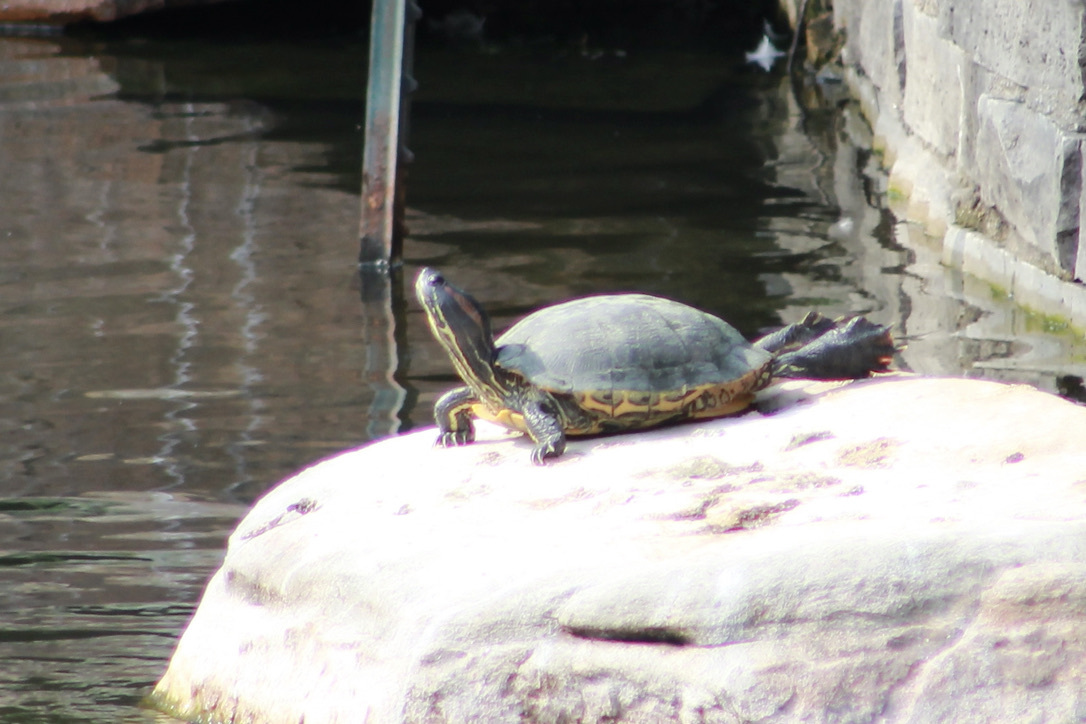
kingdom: Animalia
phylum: Chordata
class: Testudines
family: Emydidae
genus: Trachemys
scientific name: Trachemys scripta
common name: Slider
